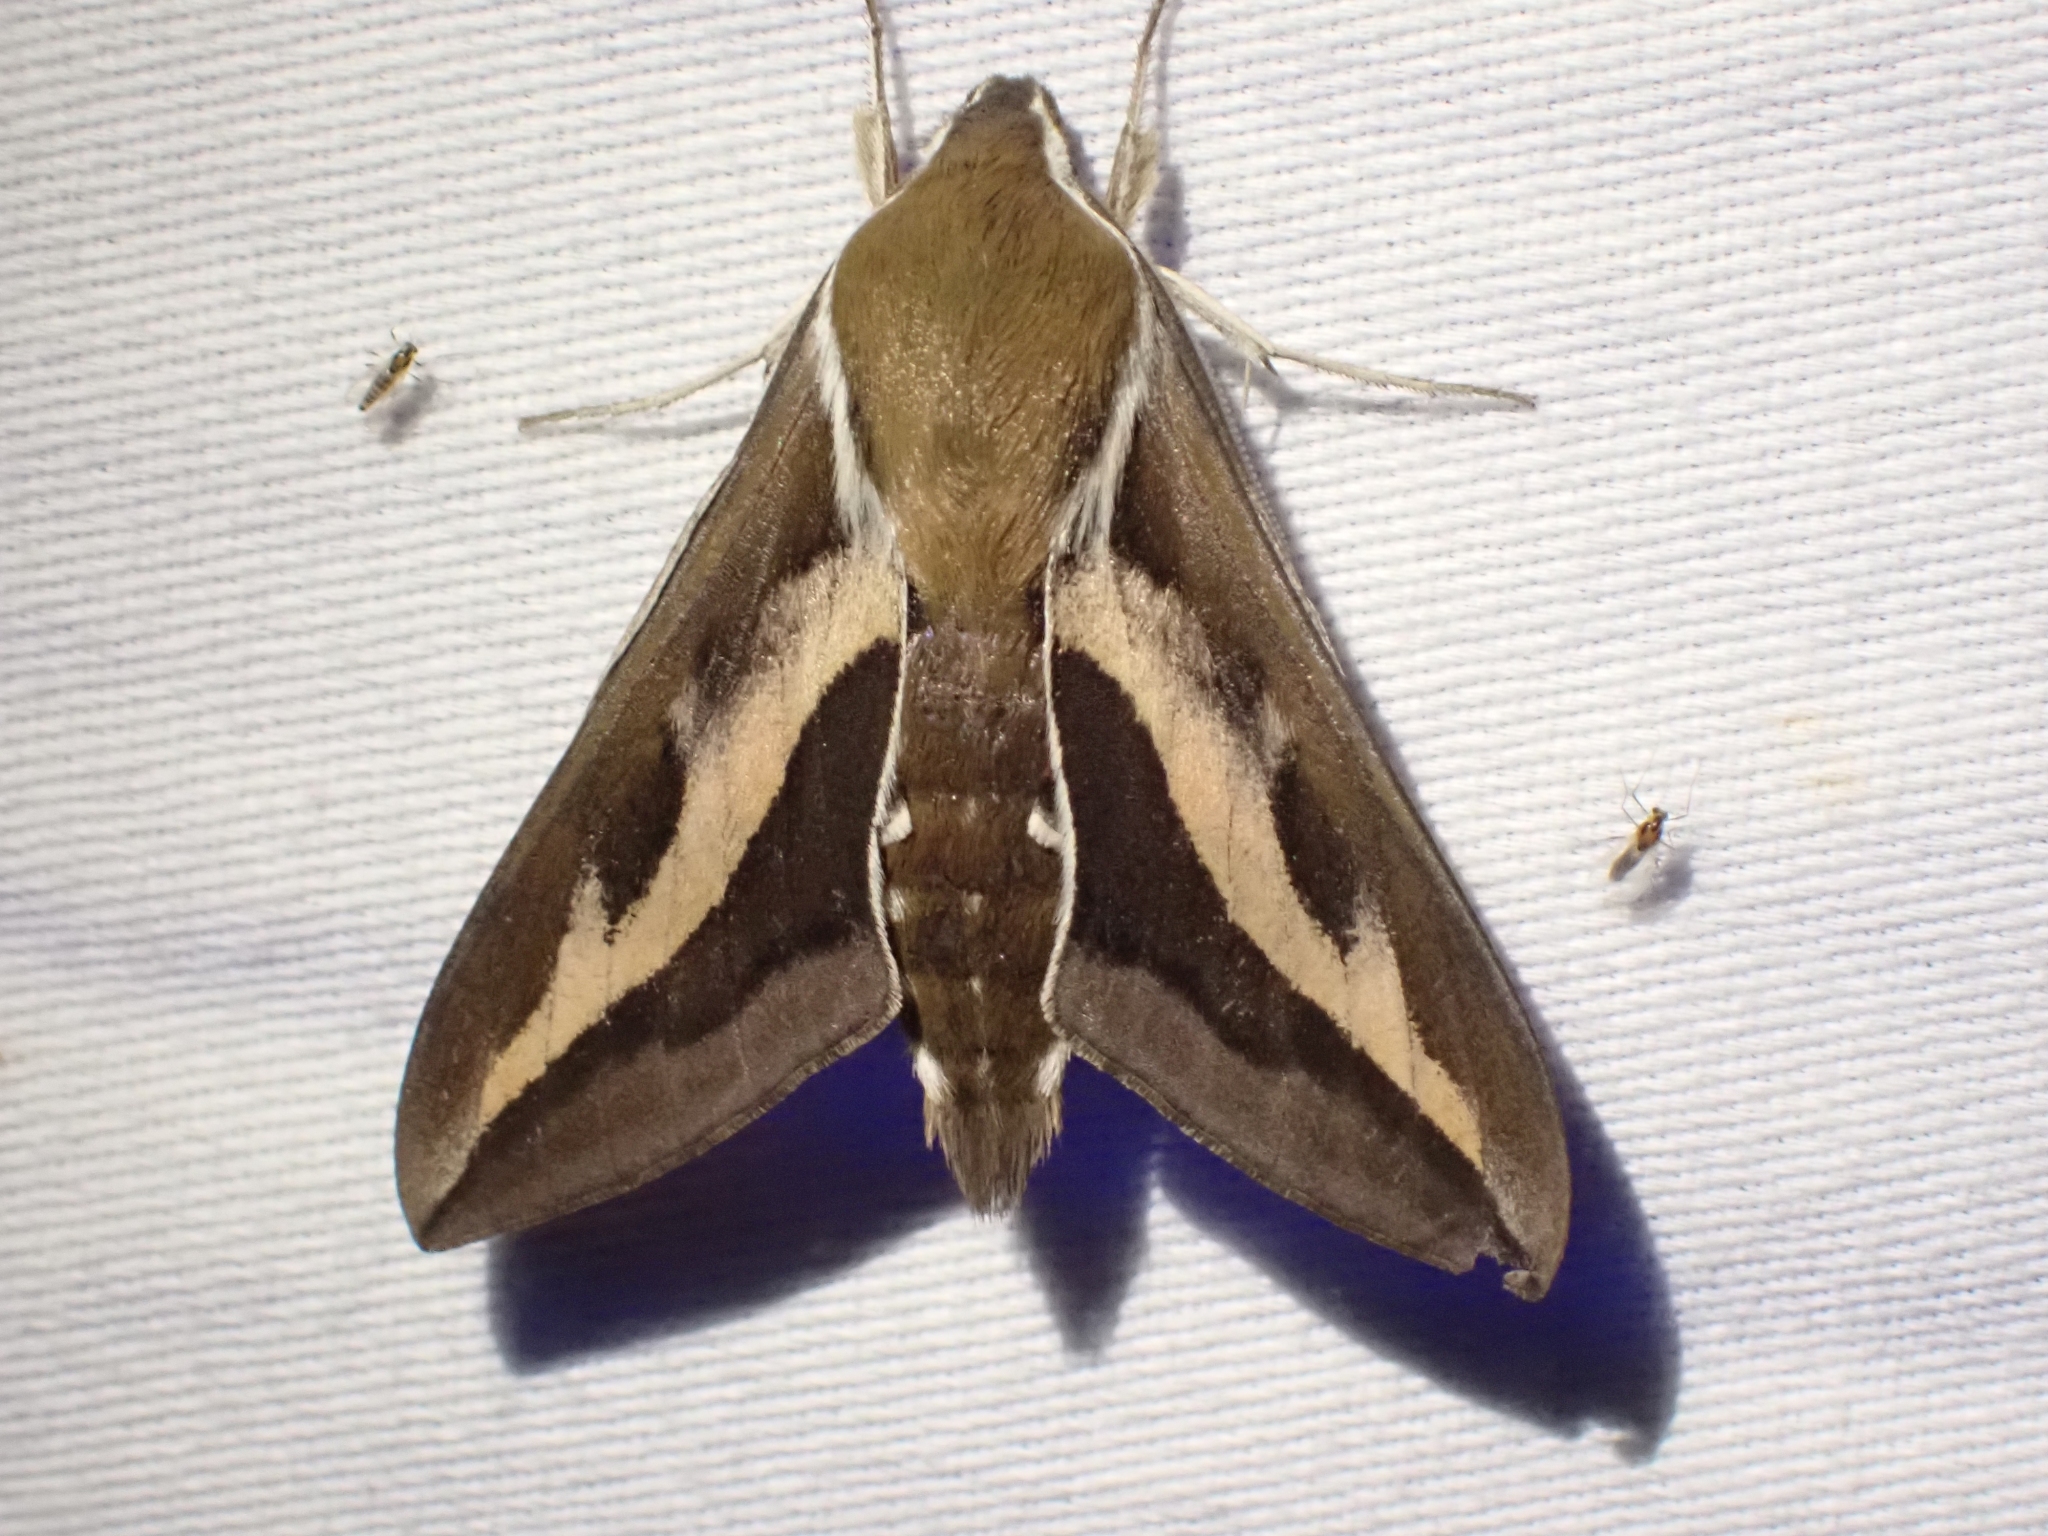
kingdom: Animalia
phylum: Arthropoda
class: Insecta
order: Lepidoptera
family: Sphingidae
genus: Hyles
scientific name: Hyles gallii
